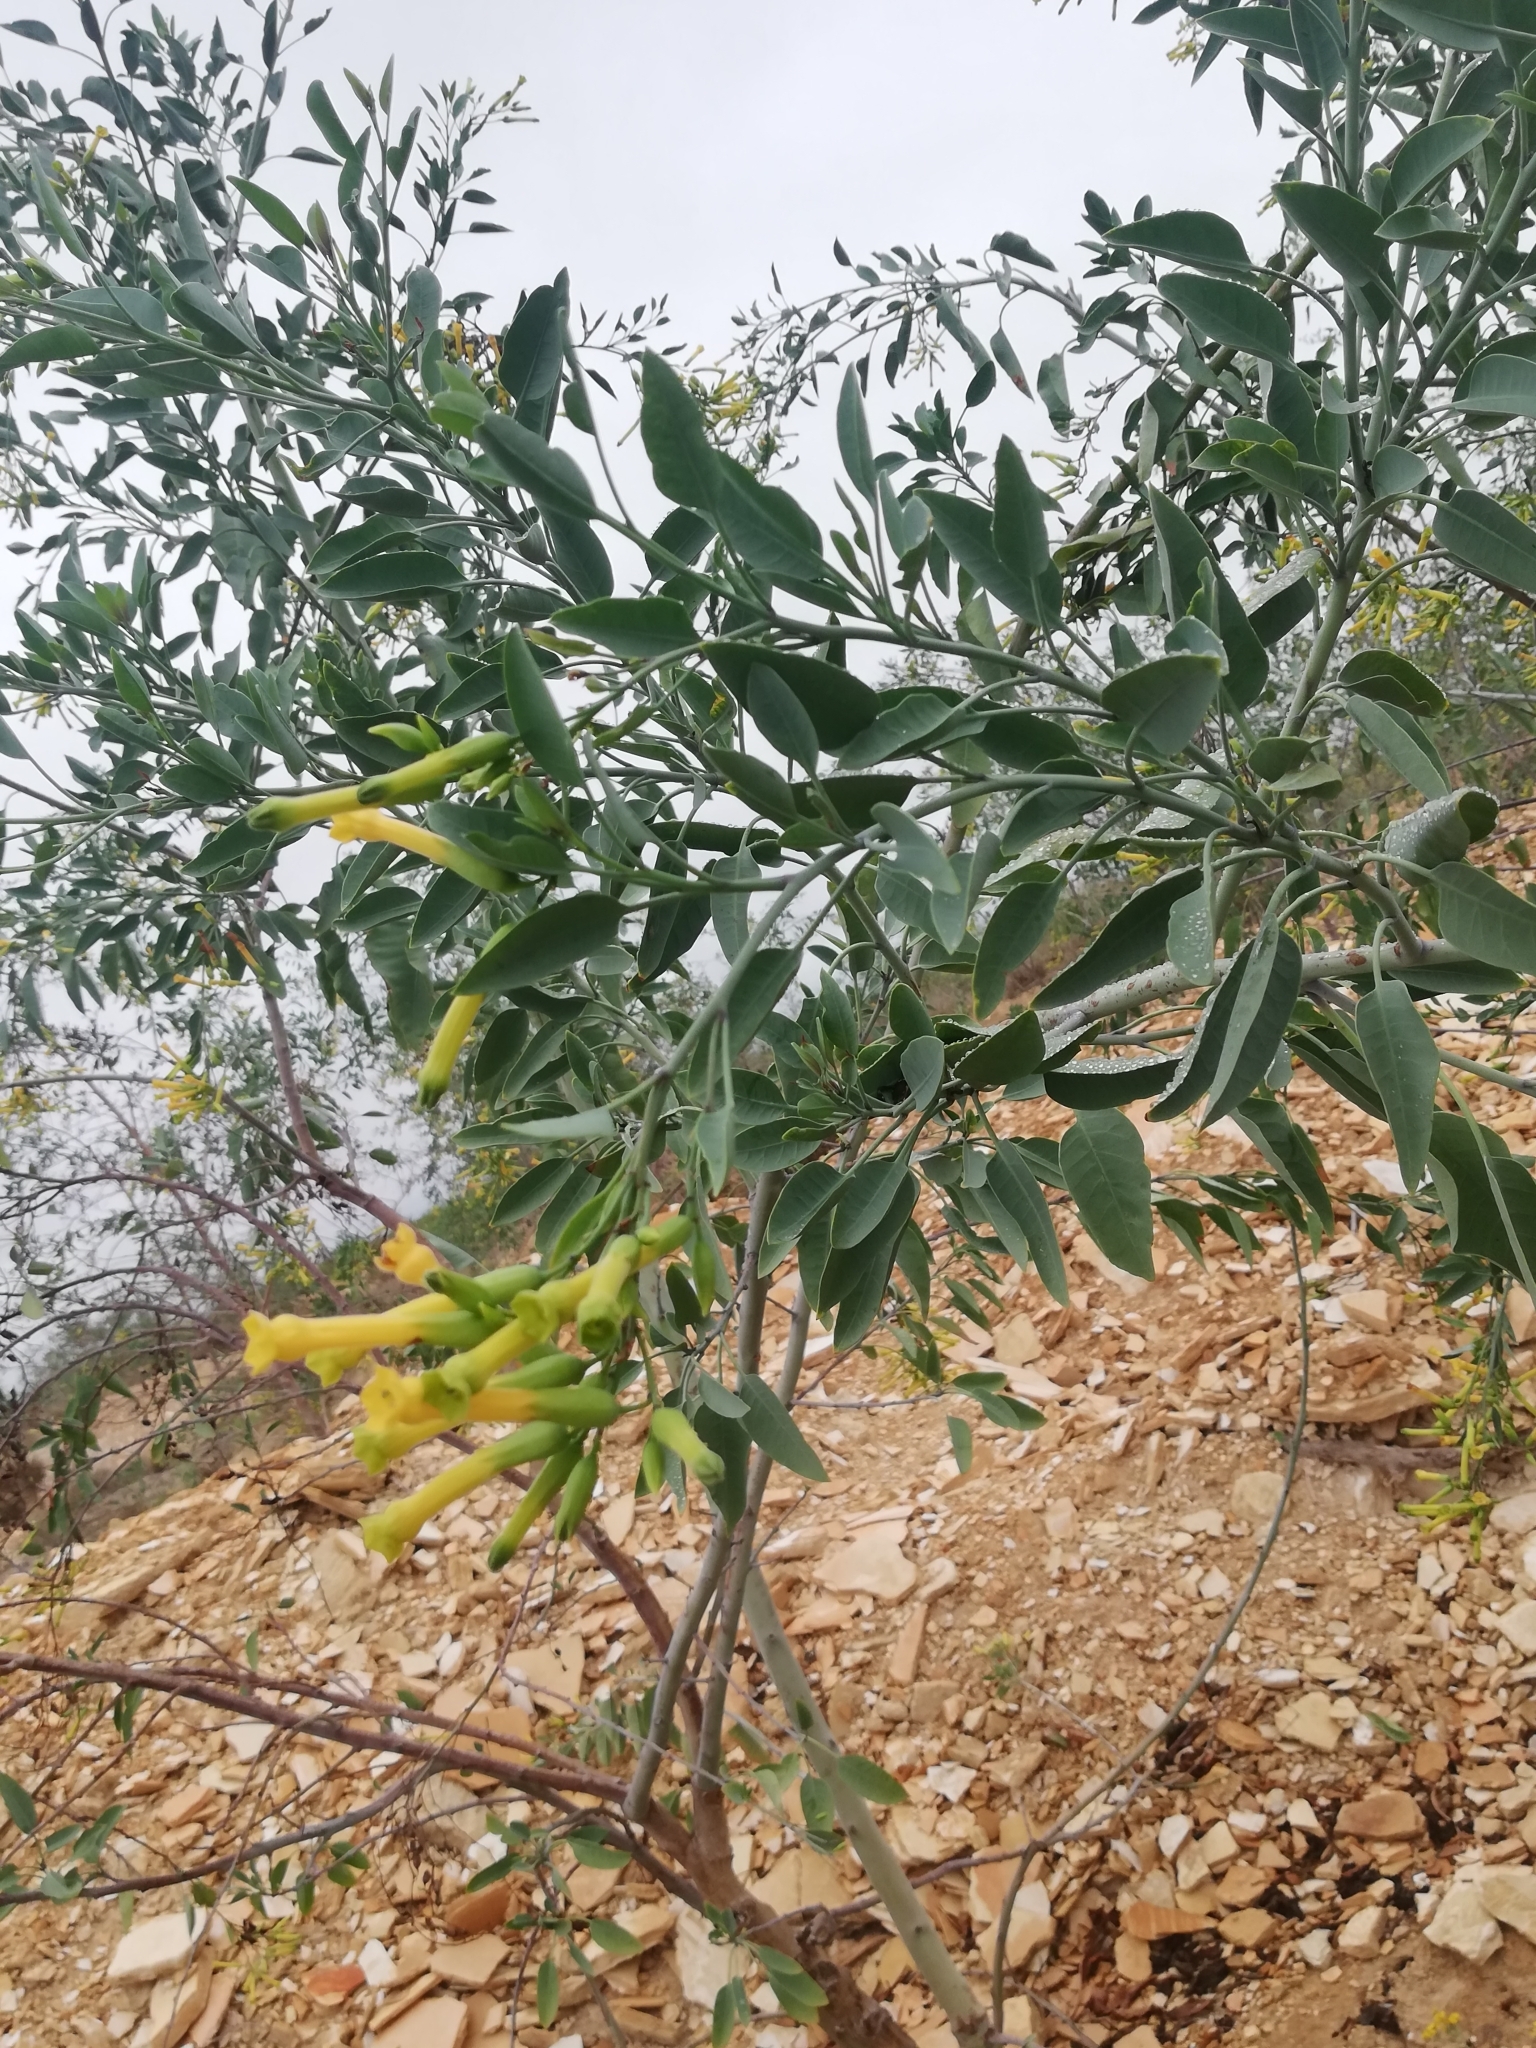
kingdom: Plantae
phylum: Tracheophyta
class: Magnoliopsida
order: Solanales
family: Solanaceae
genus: Nicotiana
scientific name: Nicotiana glauca
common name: Tree tobacco
